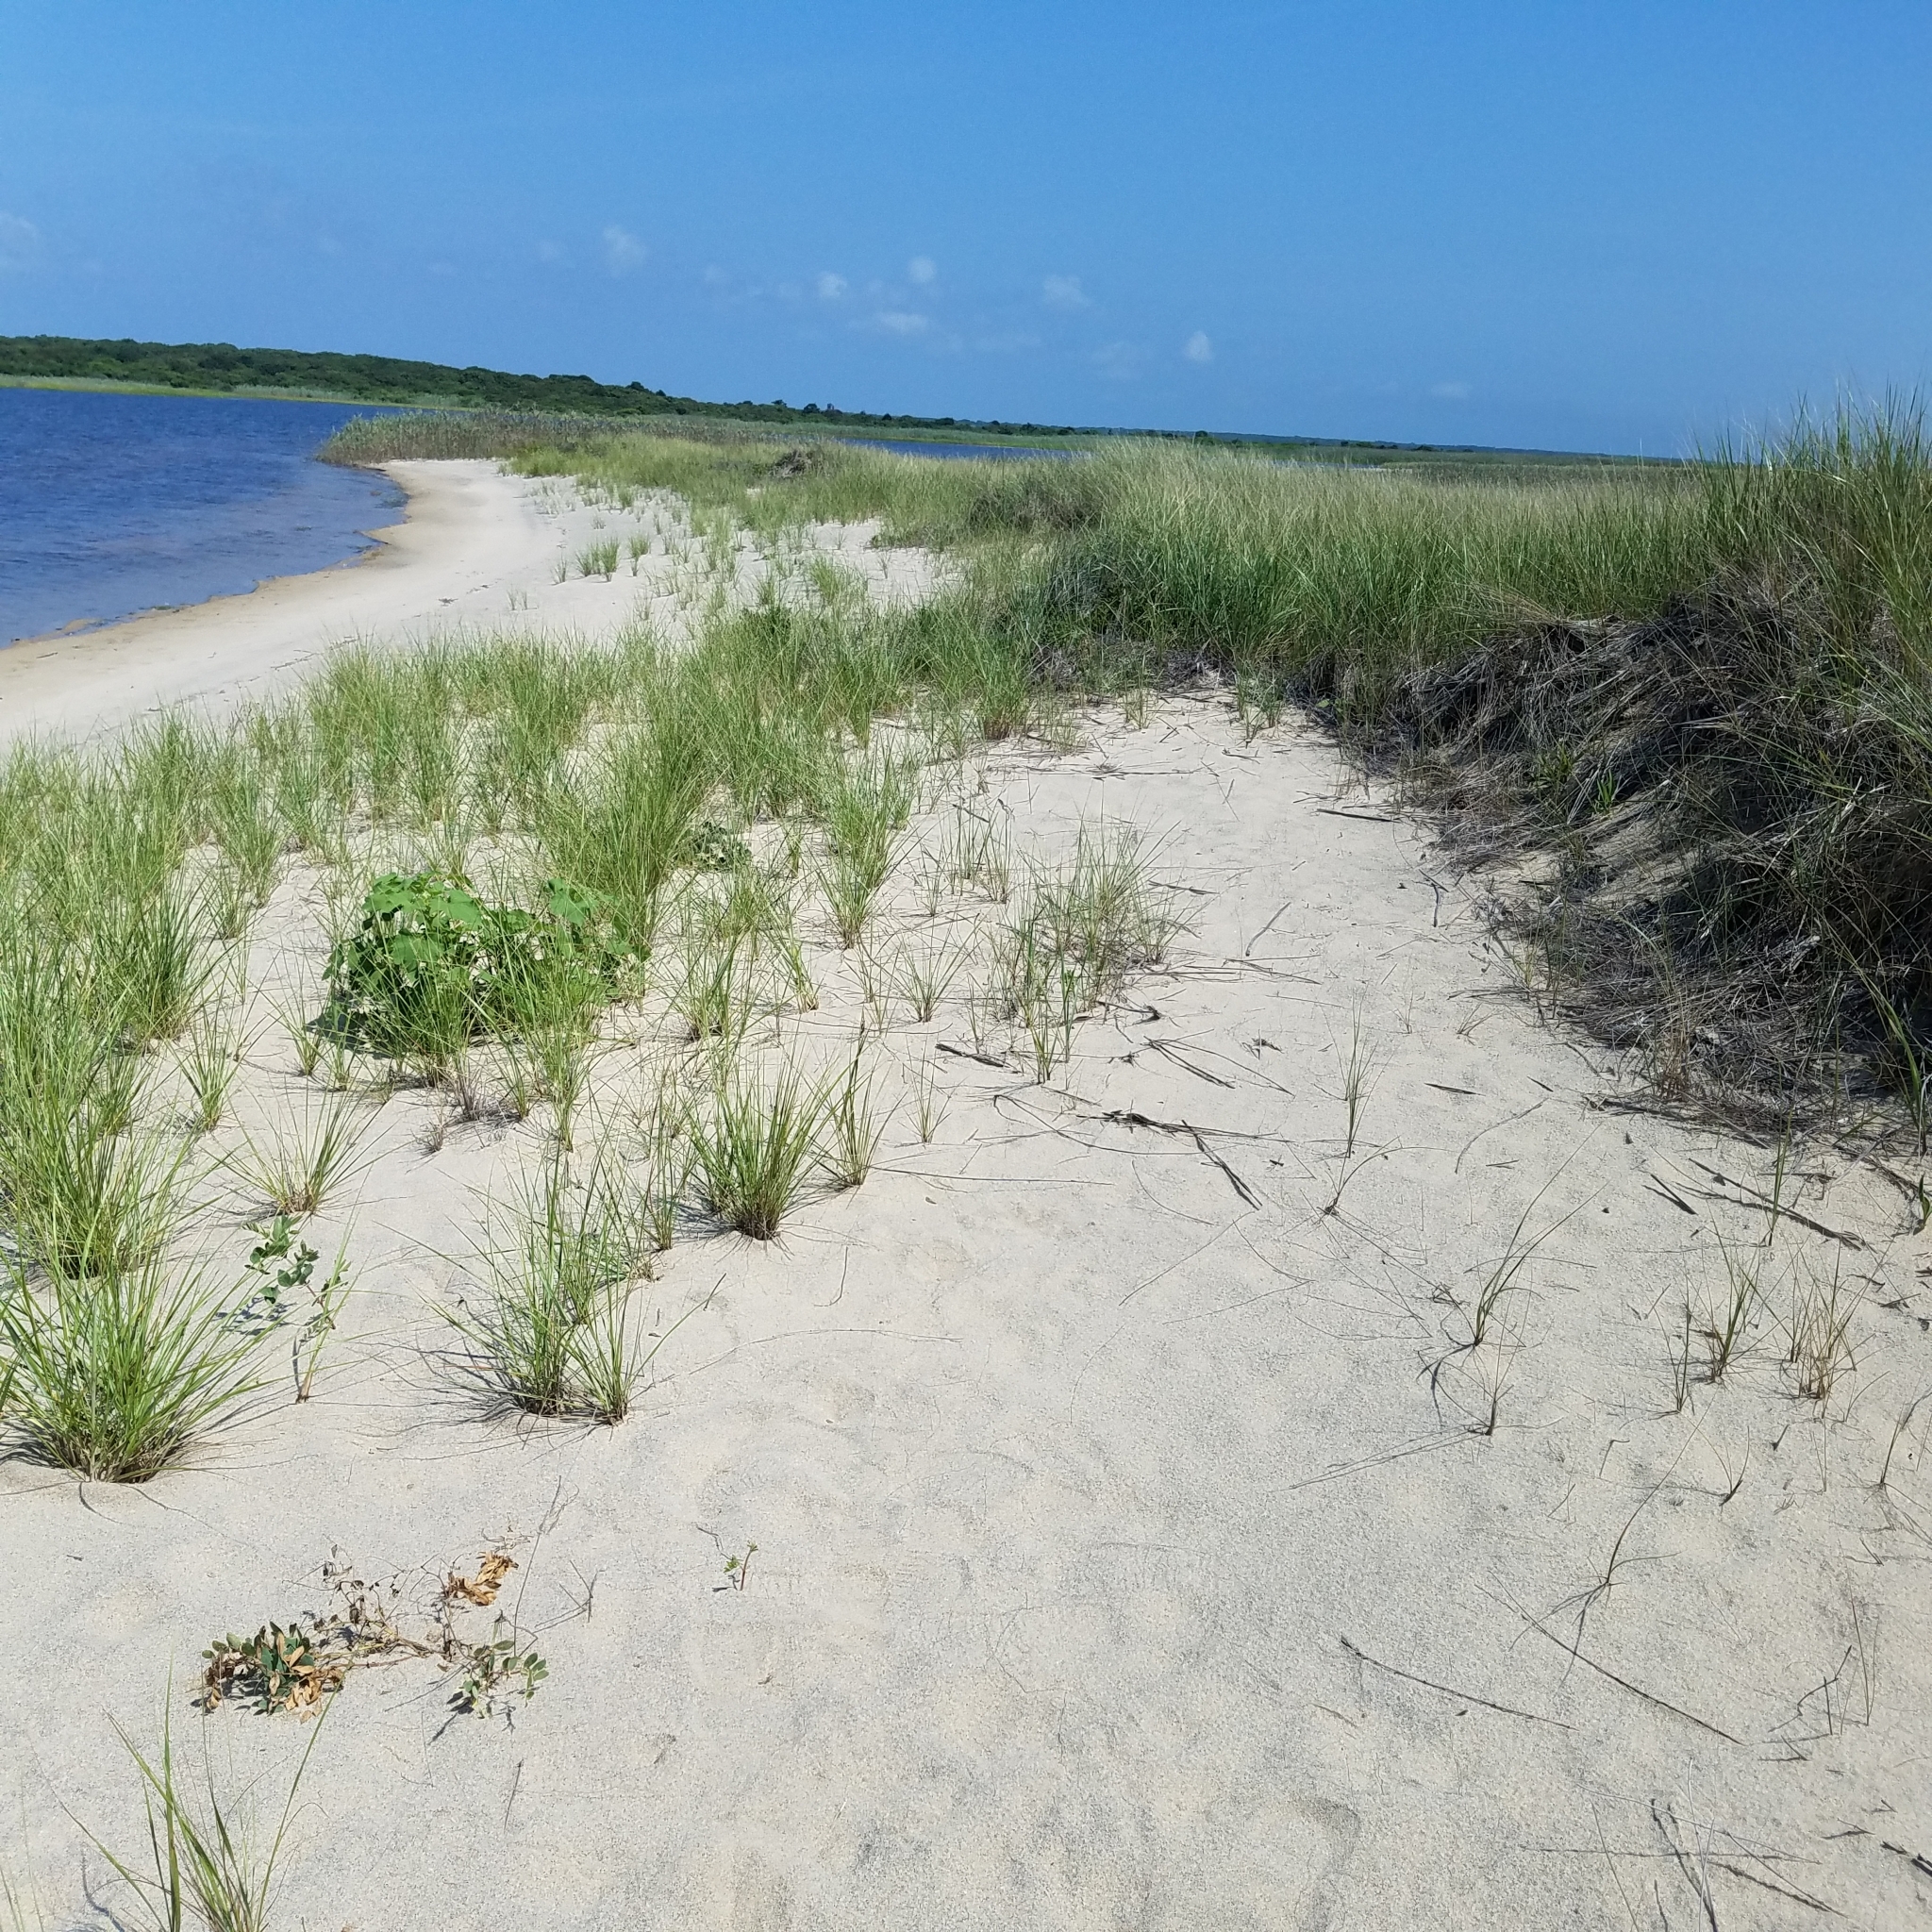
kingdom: Animalia
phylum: Arthropoda
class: Insecta
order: Orthoptera
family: Acrididae
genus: Trimerotropis
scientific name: Trimerotropis maritima
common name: Seaside locust
